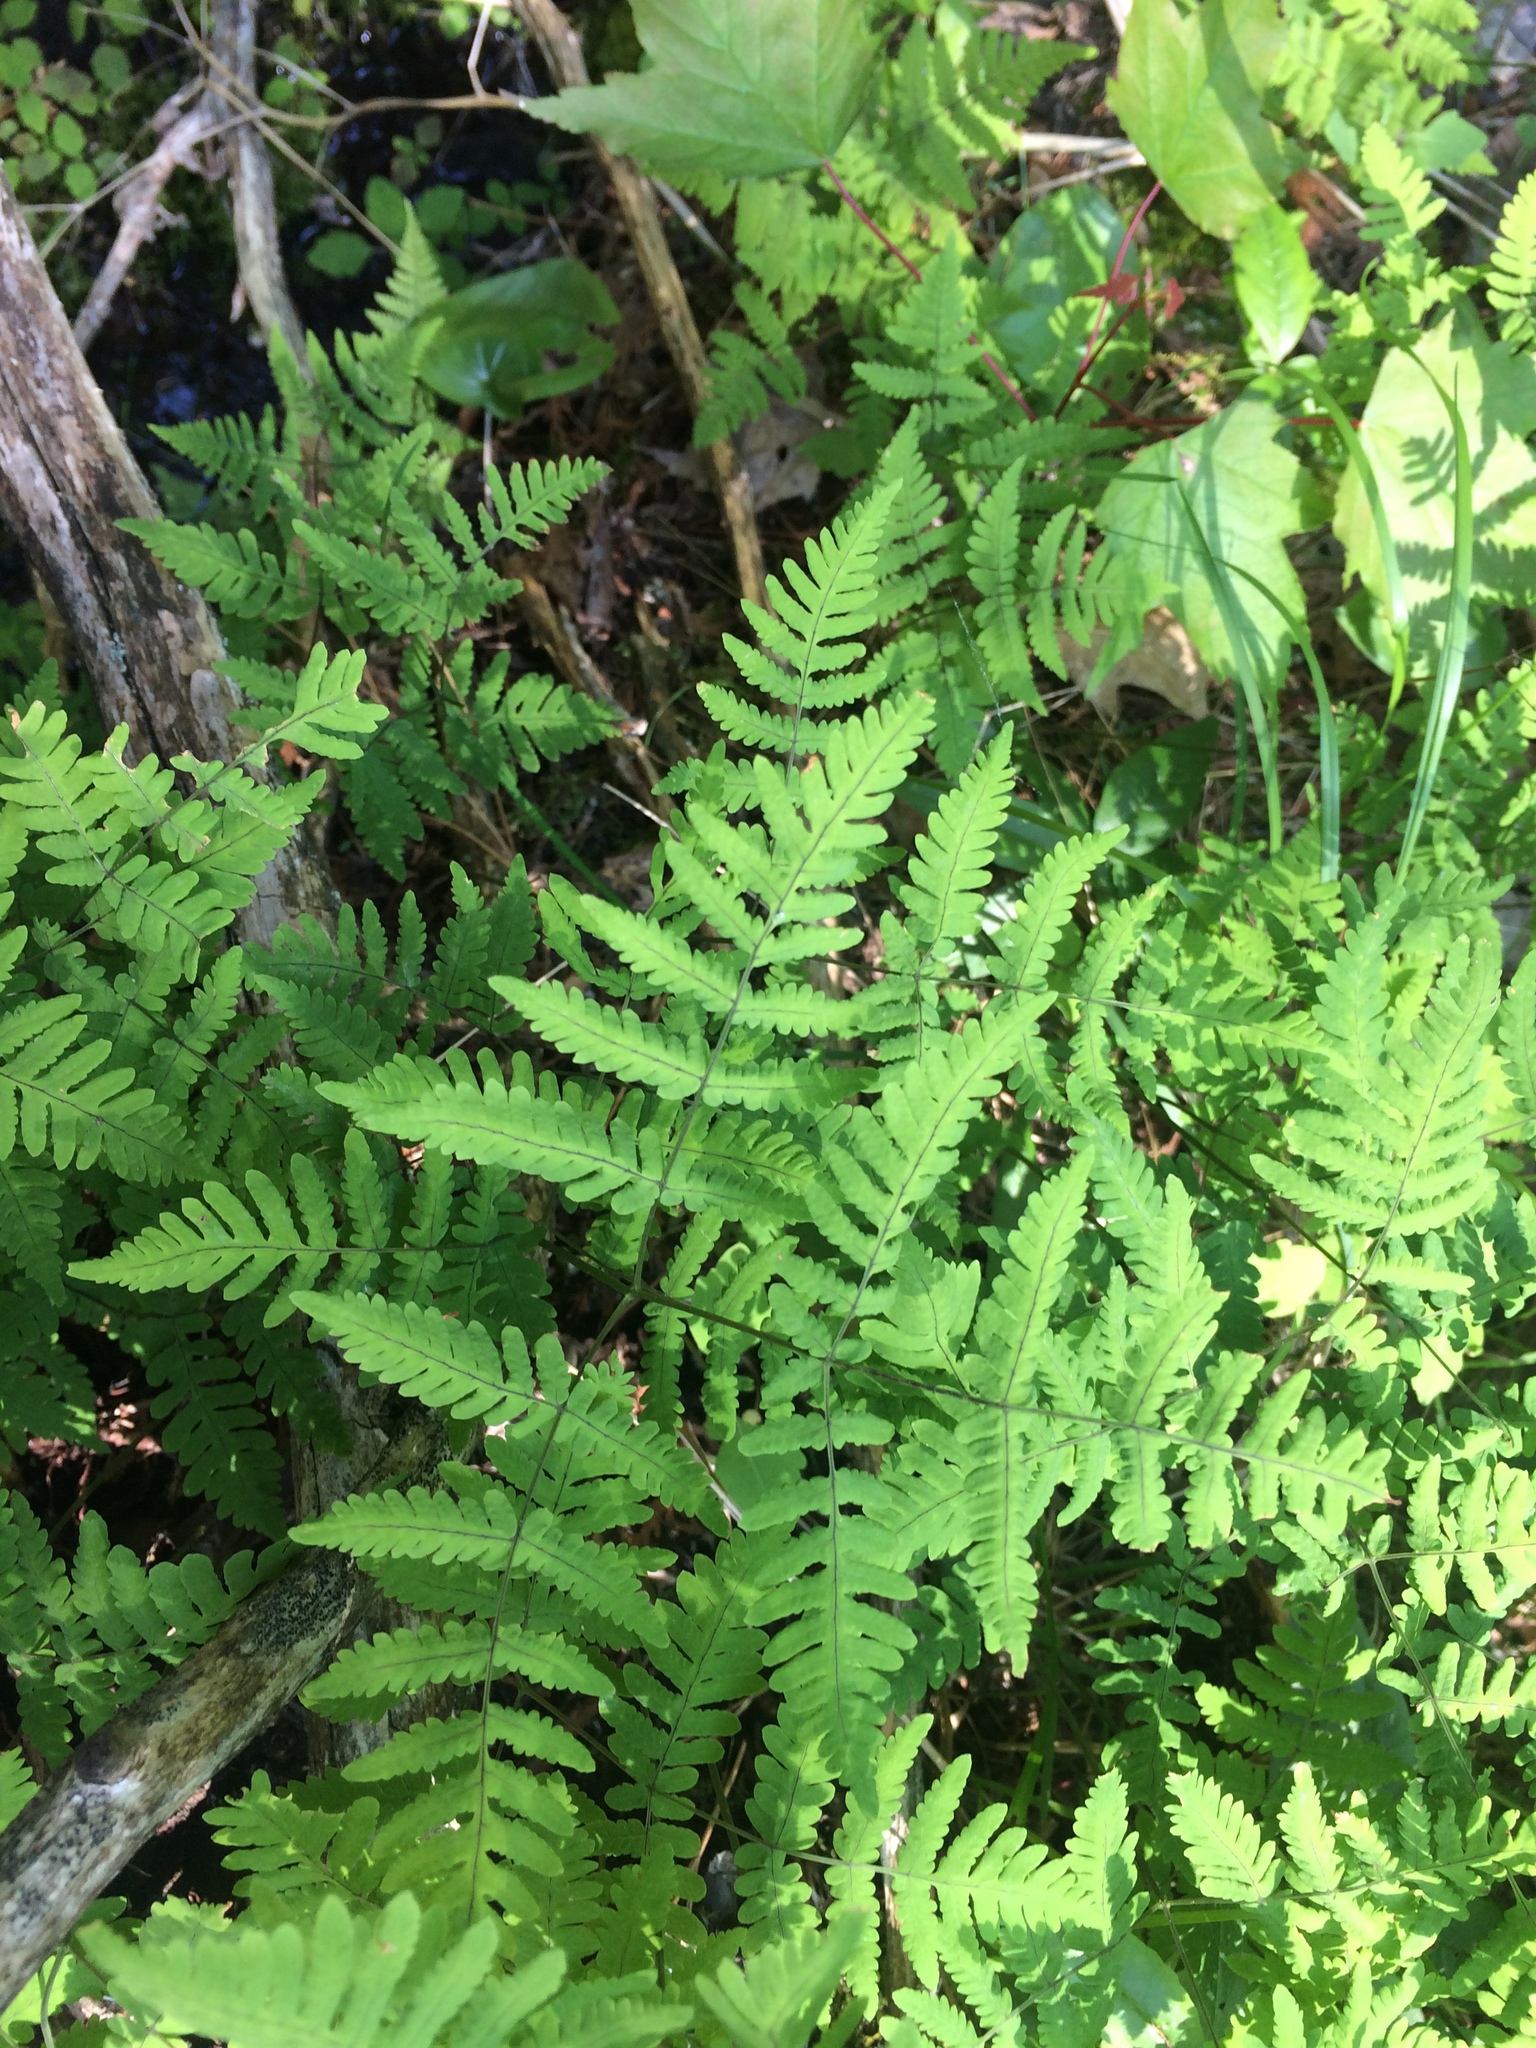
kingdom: Plantae
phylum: Tracheophyta
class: Polypodiopsida
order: Polypodiales
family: Cystopteridaceae
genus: Gymnocarpium
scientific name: Gymnocarpium dryopteris
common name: Oak fern
